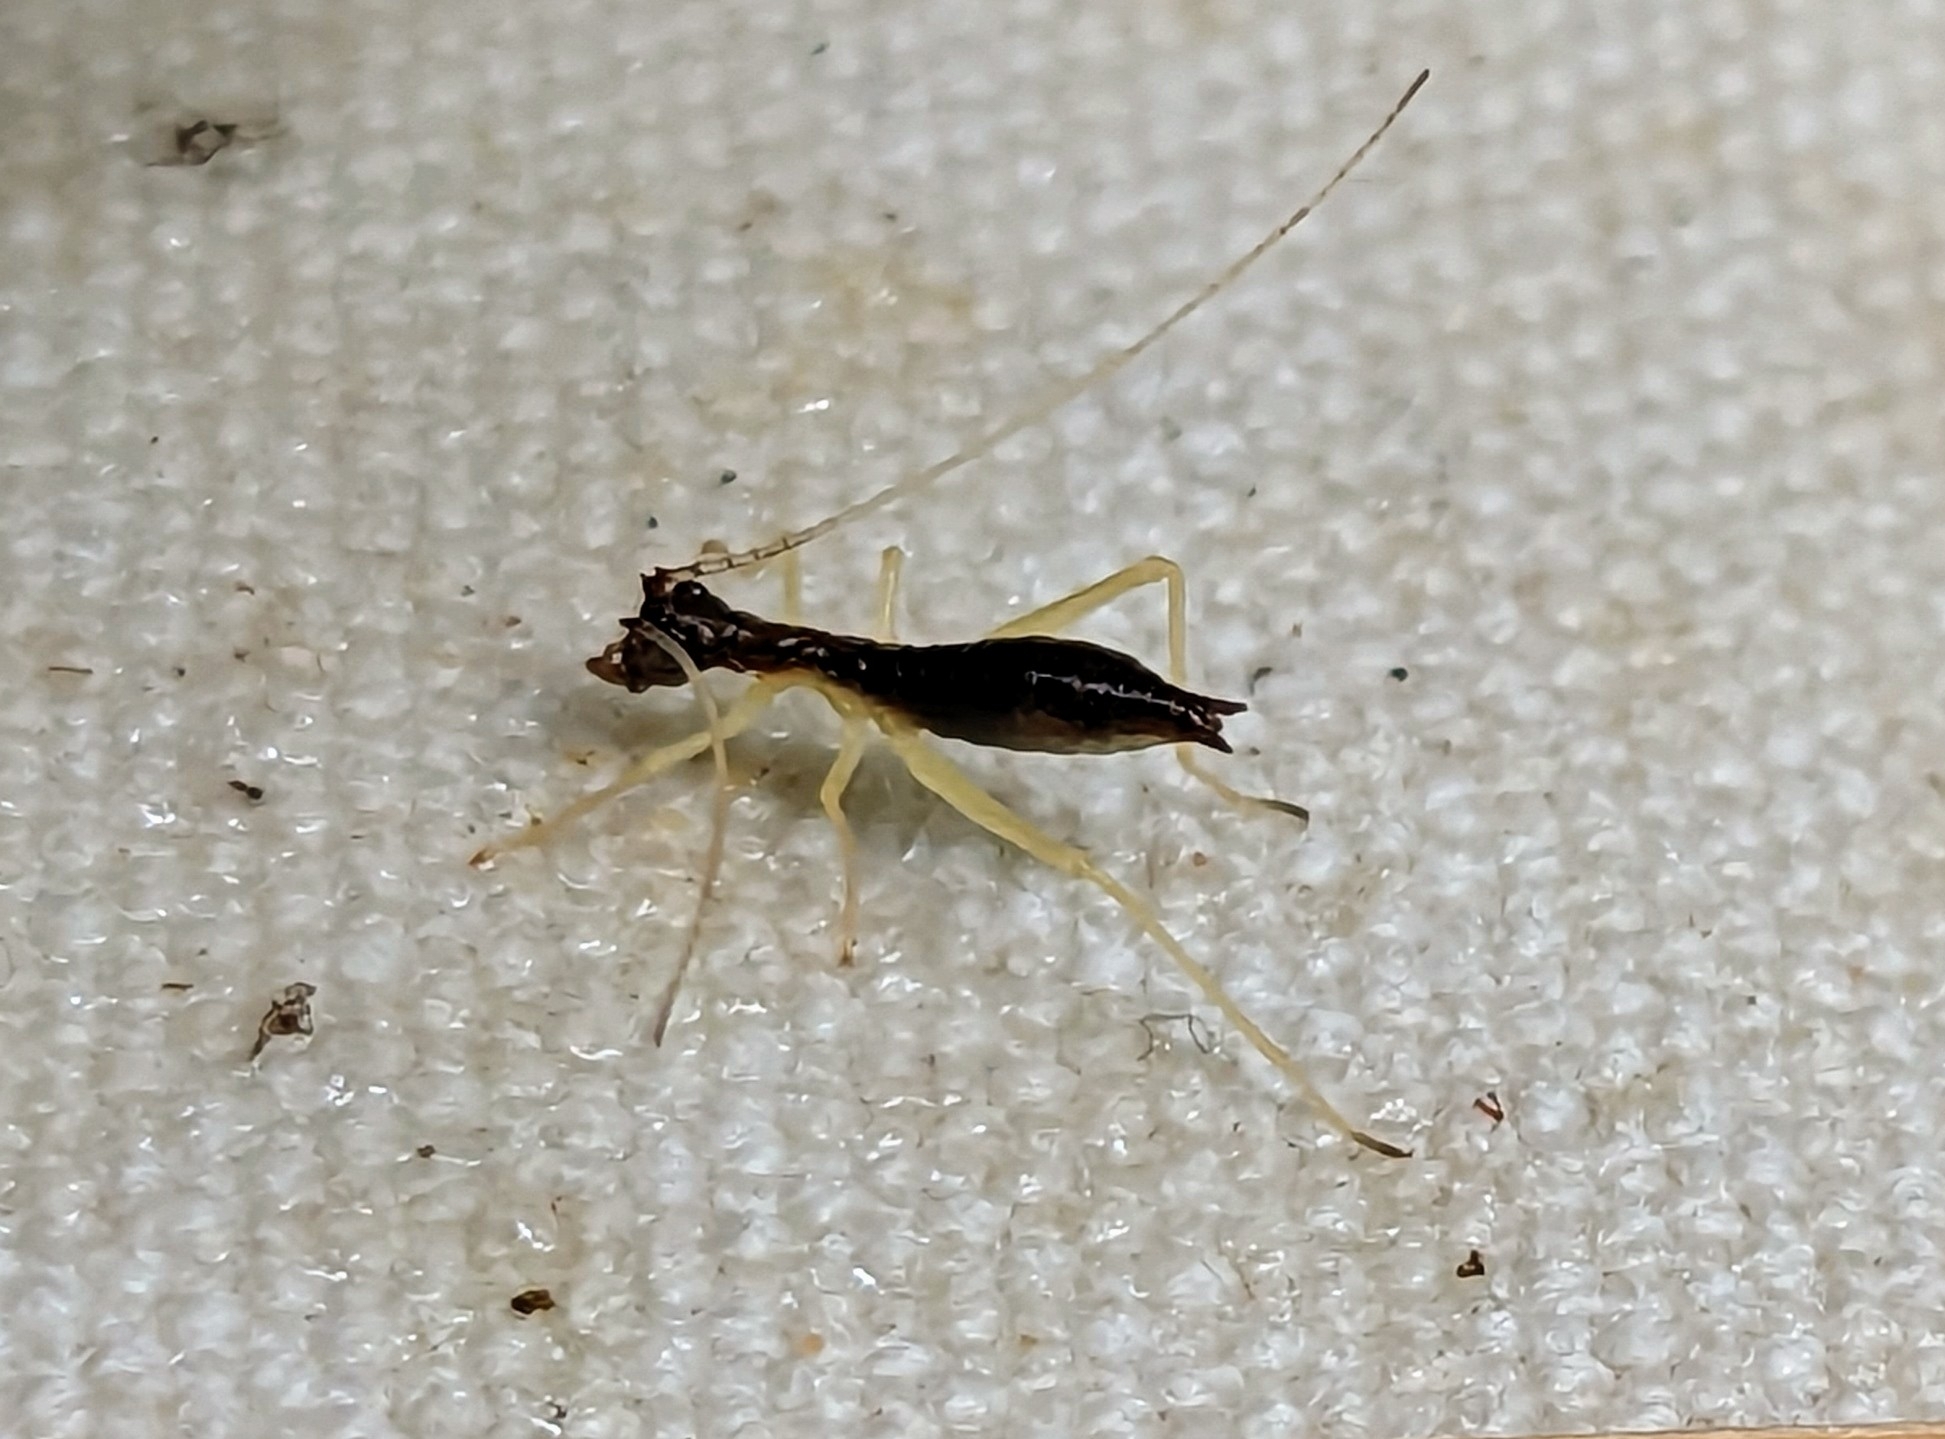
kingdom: Animalia
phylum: Arthropoda
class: Insecta
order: Orthoptera
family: Gryllidae
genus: Neoxabea
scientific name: Neoxabea bipunctata
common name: Two-spotted tree cricket
